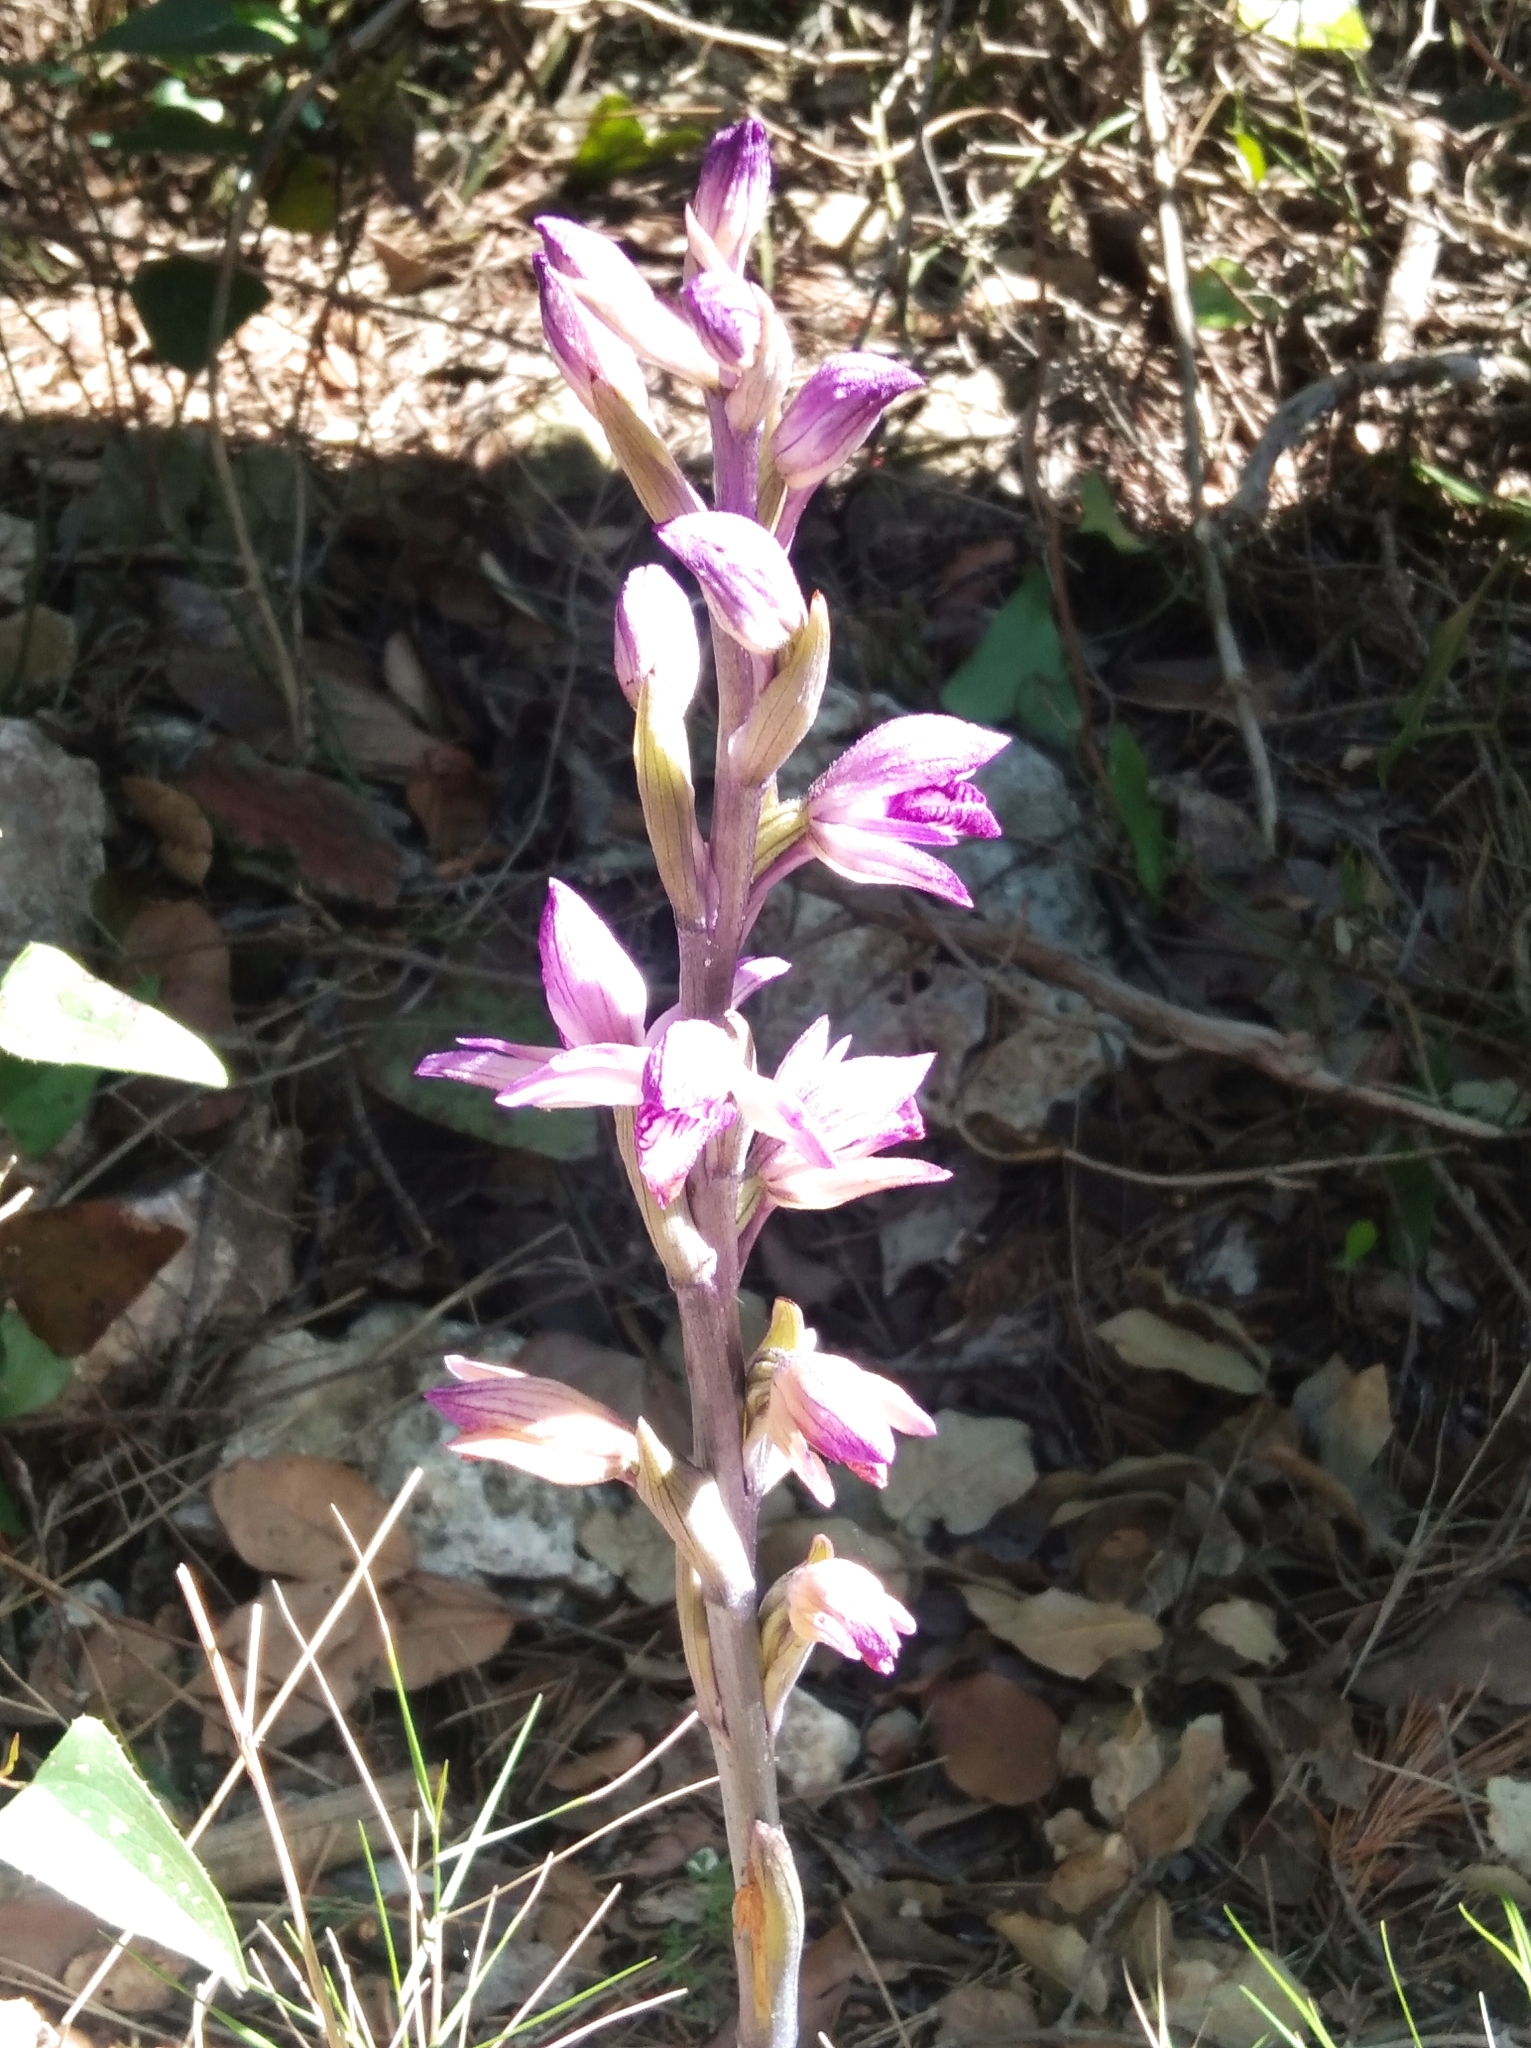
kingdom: Plantae
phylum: Tracheophyta
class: Liliopsida
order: Asparagales
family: Orchidaceae
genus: Limodorum
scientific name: Limodorum abortivum
